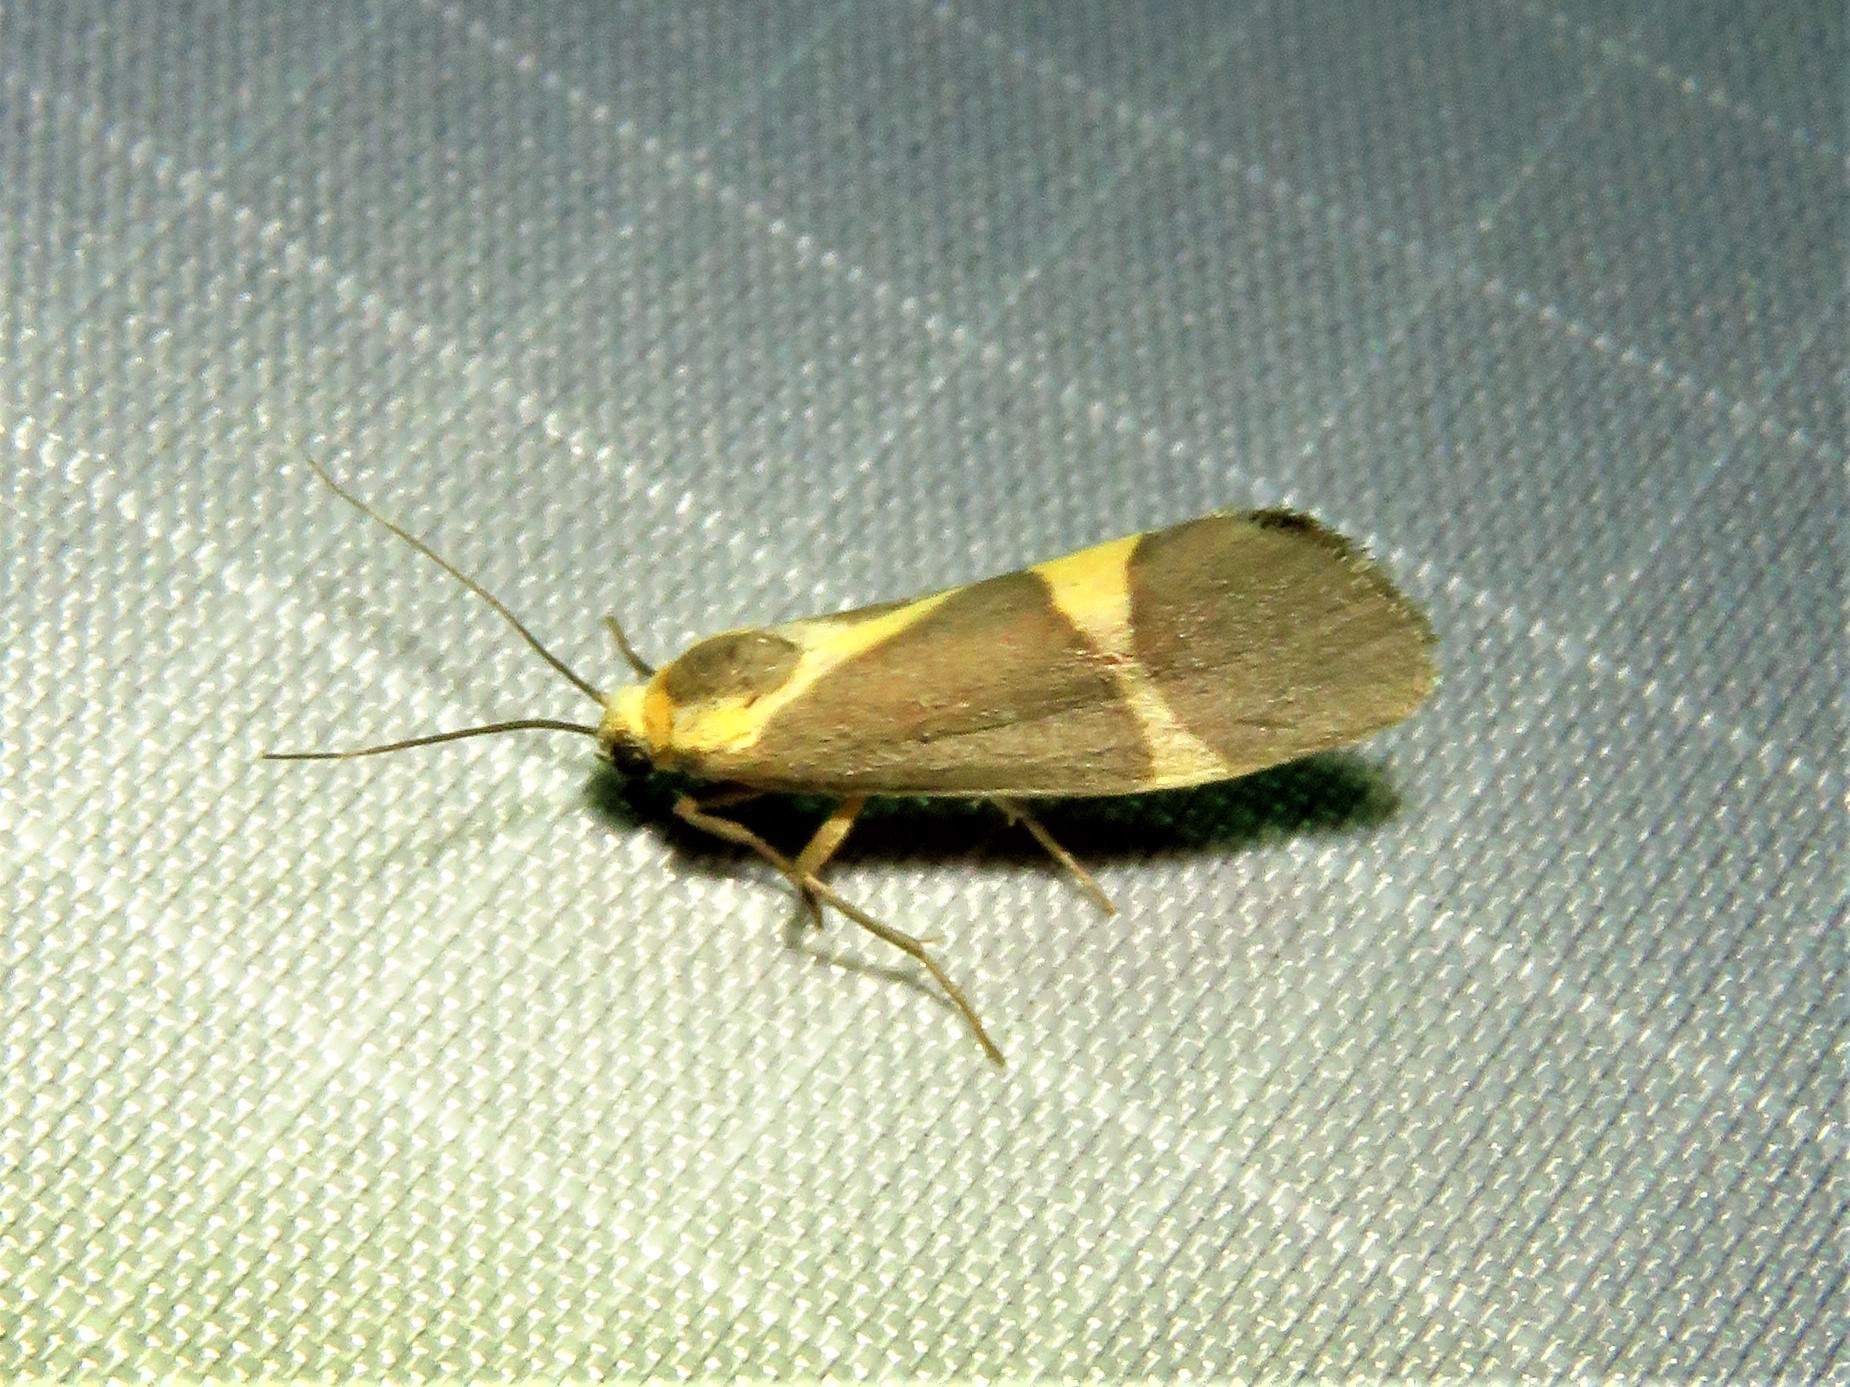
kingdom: Animalia
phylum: Arthropoda
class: Insecta
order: Lepidoptera
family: Erebidae
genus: Cisthene
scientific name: Cisthene tenuifascia
